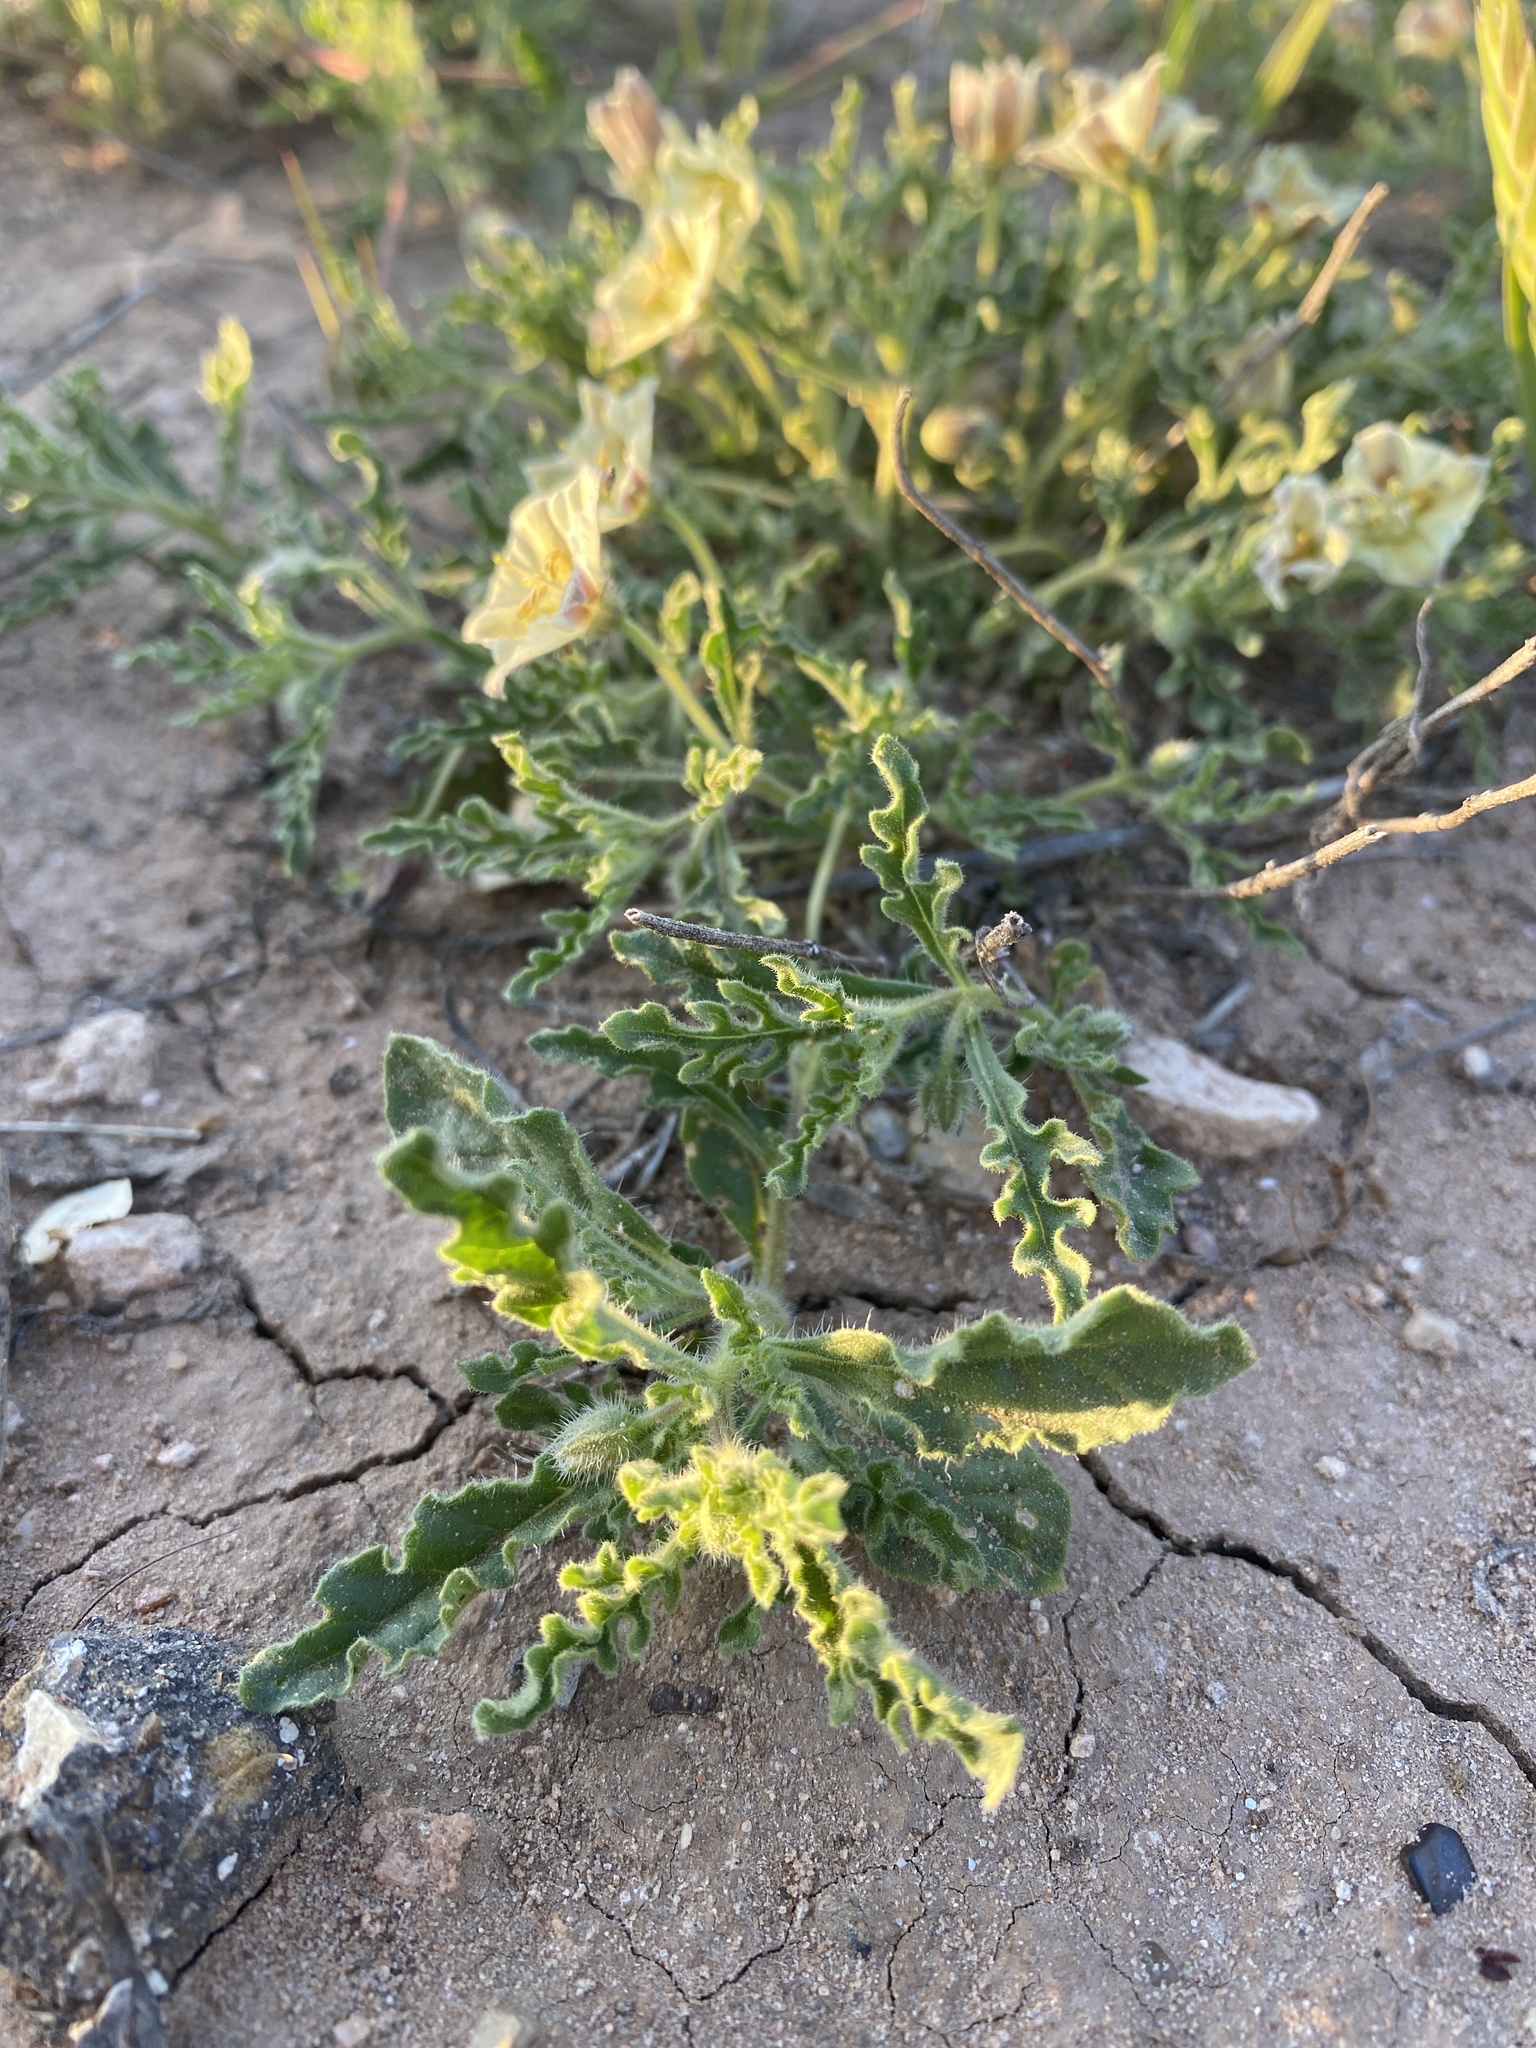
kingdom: Plantae
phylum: Tracheophyta
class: Magnoliopsida
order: Solanales
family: Solanaceae
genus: Chamaesaracha
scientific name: Chamaesaracha coniodes
